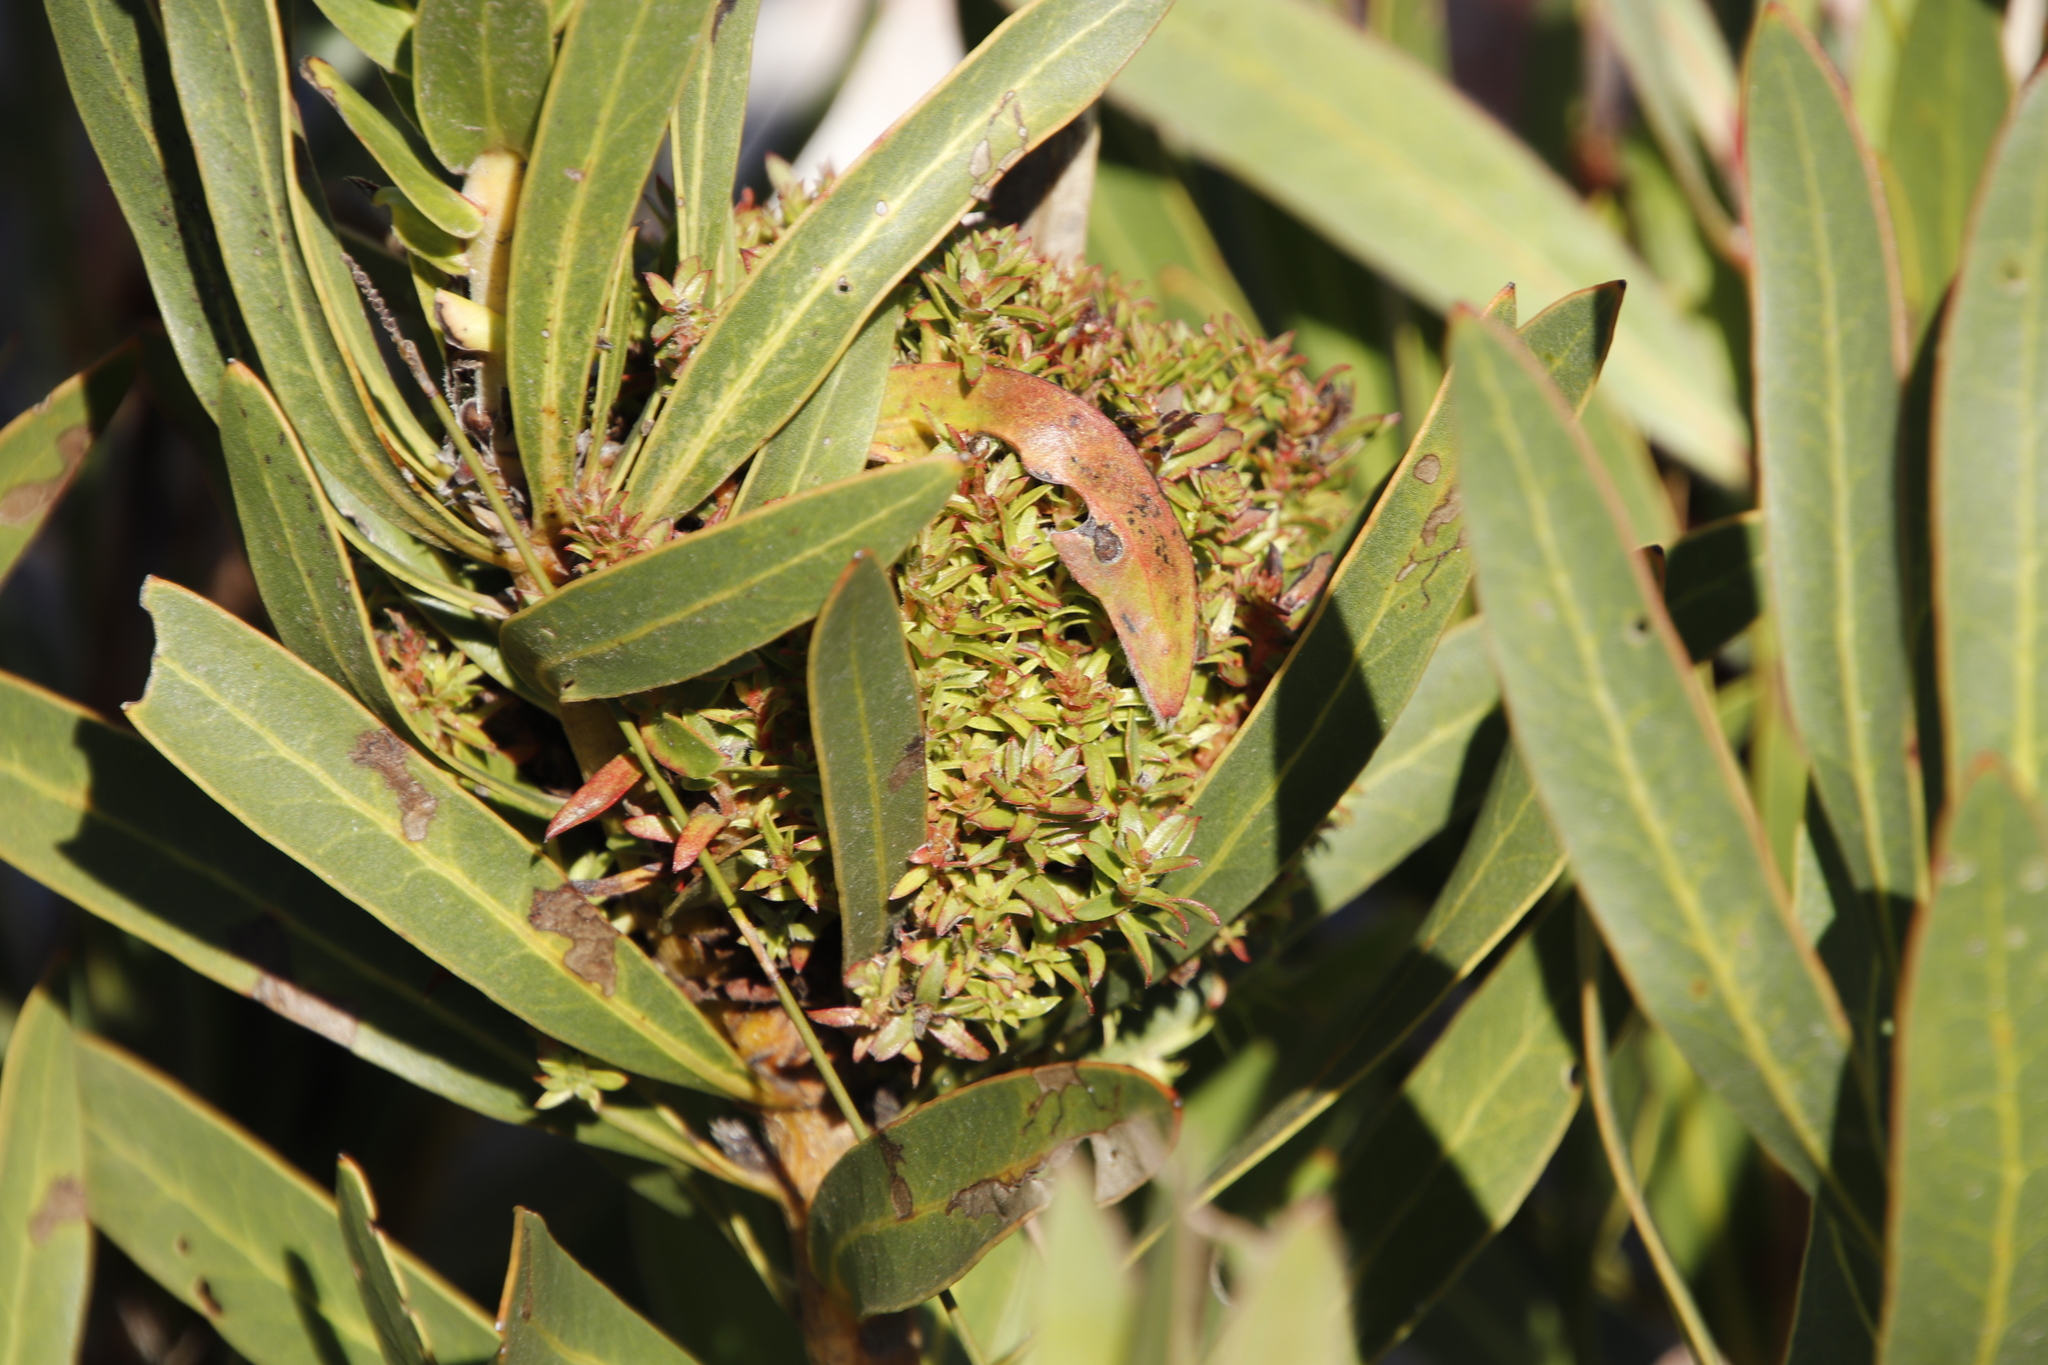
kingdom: Bacteria
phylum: Firmicutes
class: Bacilli
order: Acholeplasmatales
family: Acholeplasmataceae
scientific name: Acholeplasmataceae
